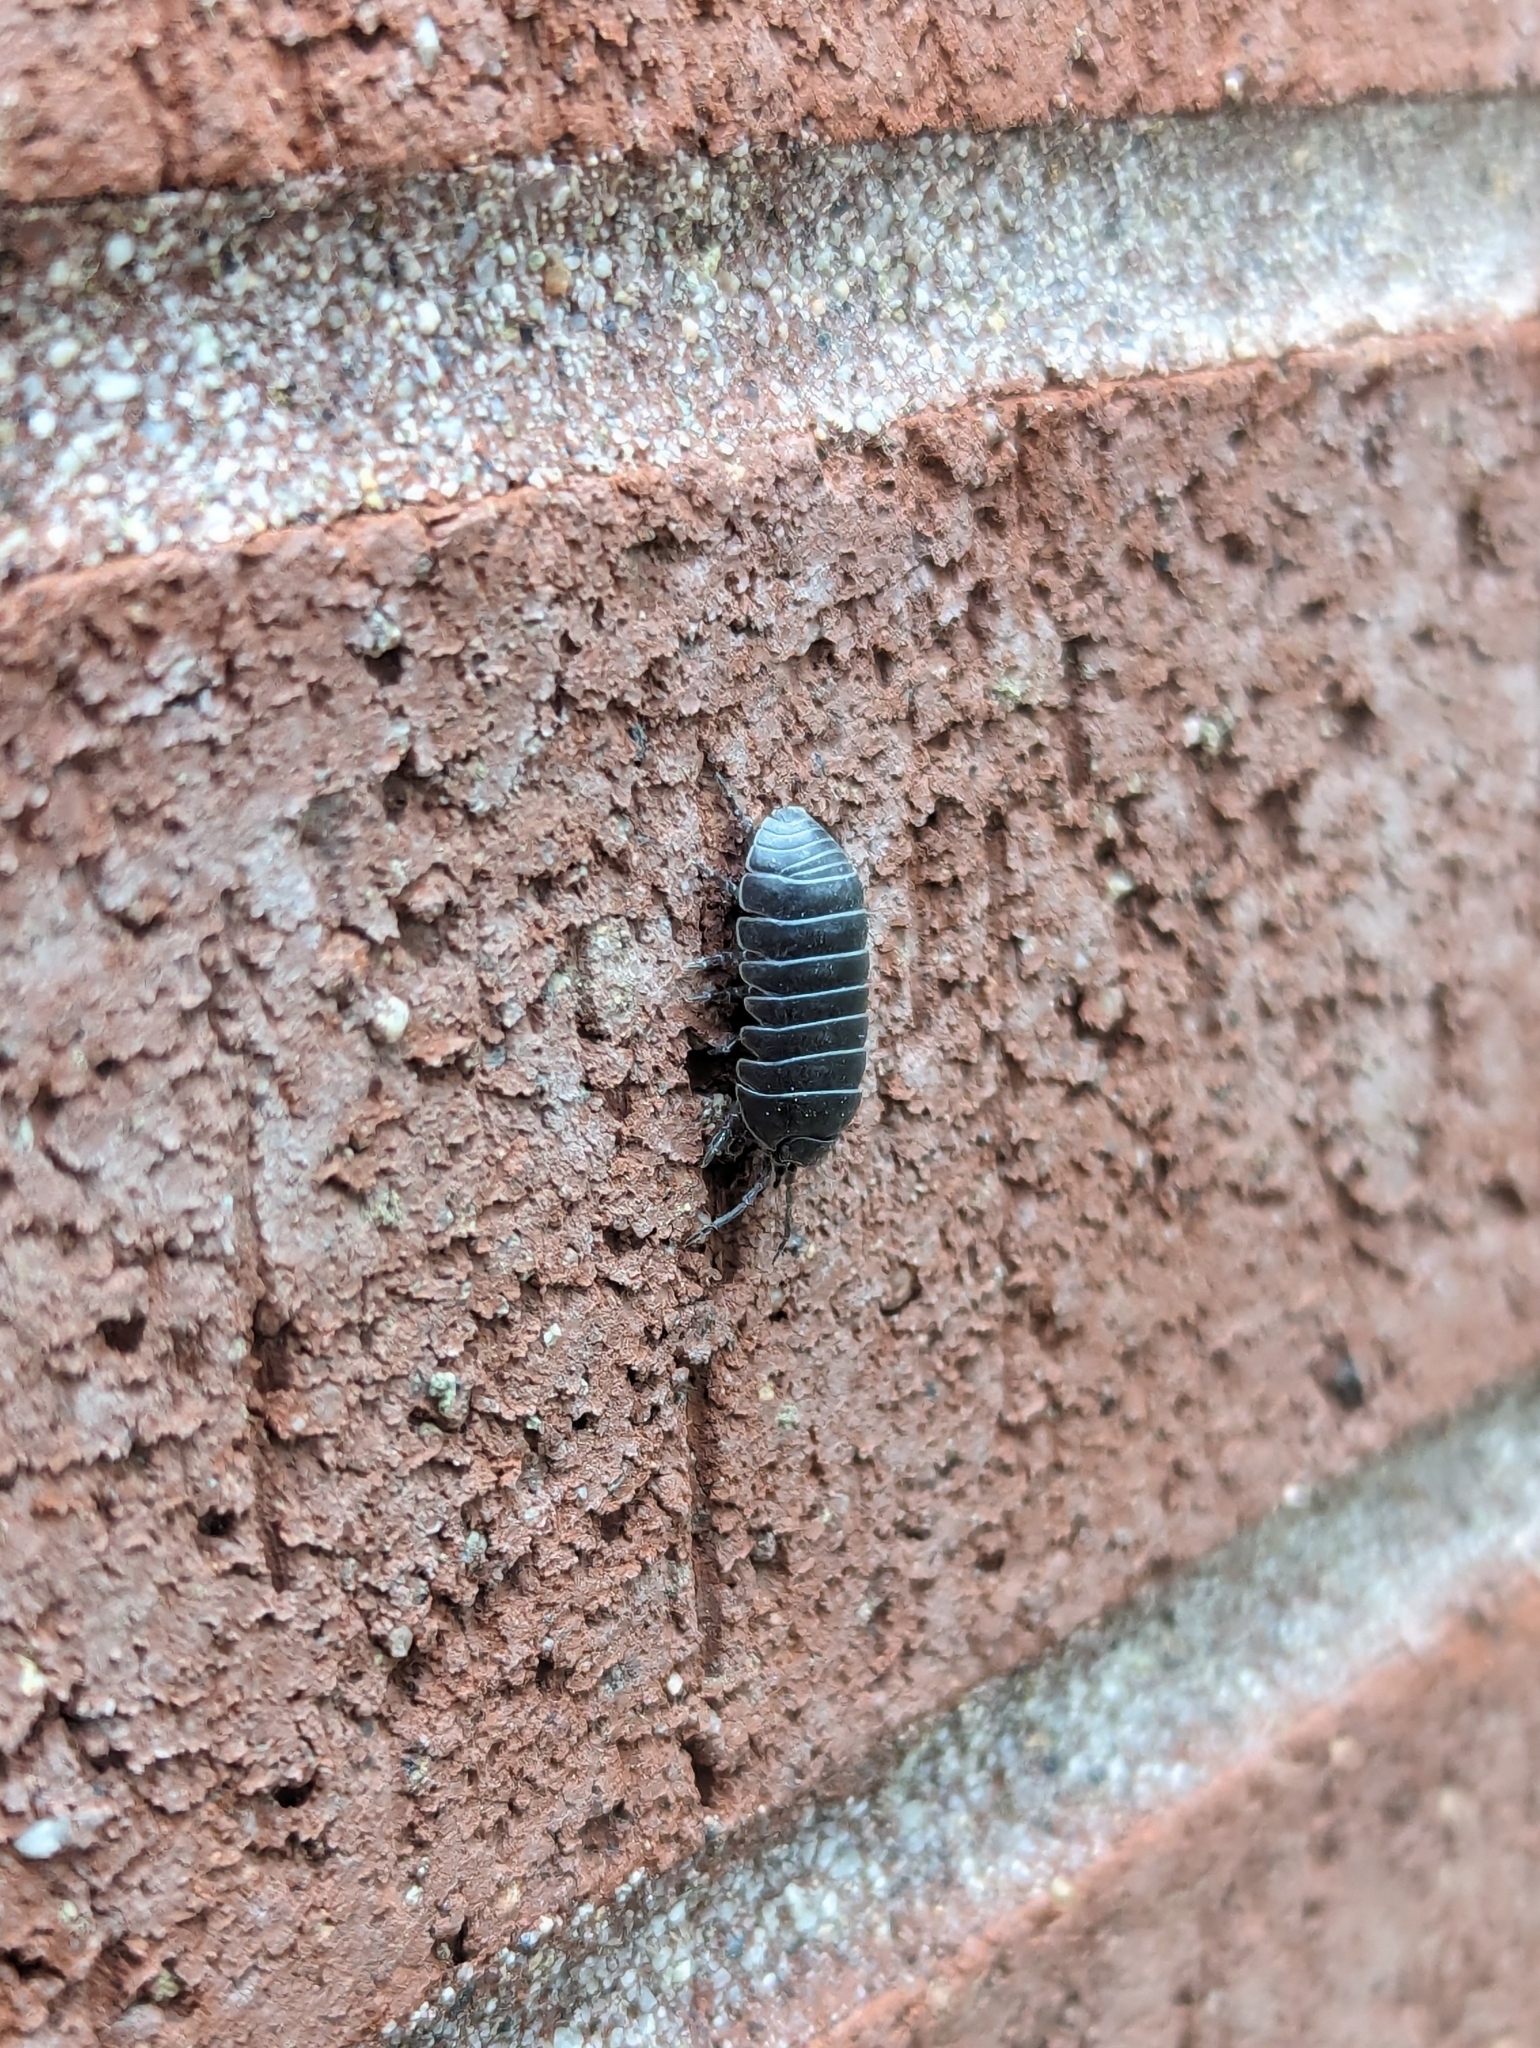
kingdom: Animalia
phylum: Arthropoda
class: Malacostraca
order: Isopoda
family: Armadillidiidae
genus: Armadillidium
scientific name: Armadillidium vulgare
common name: Common pill woodlouse
